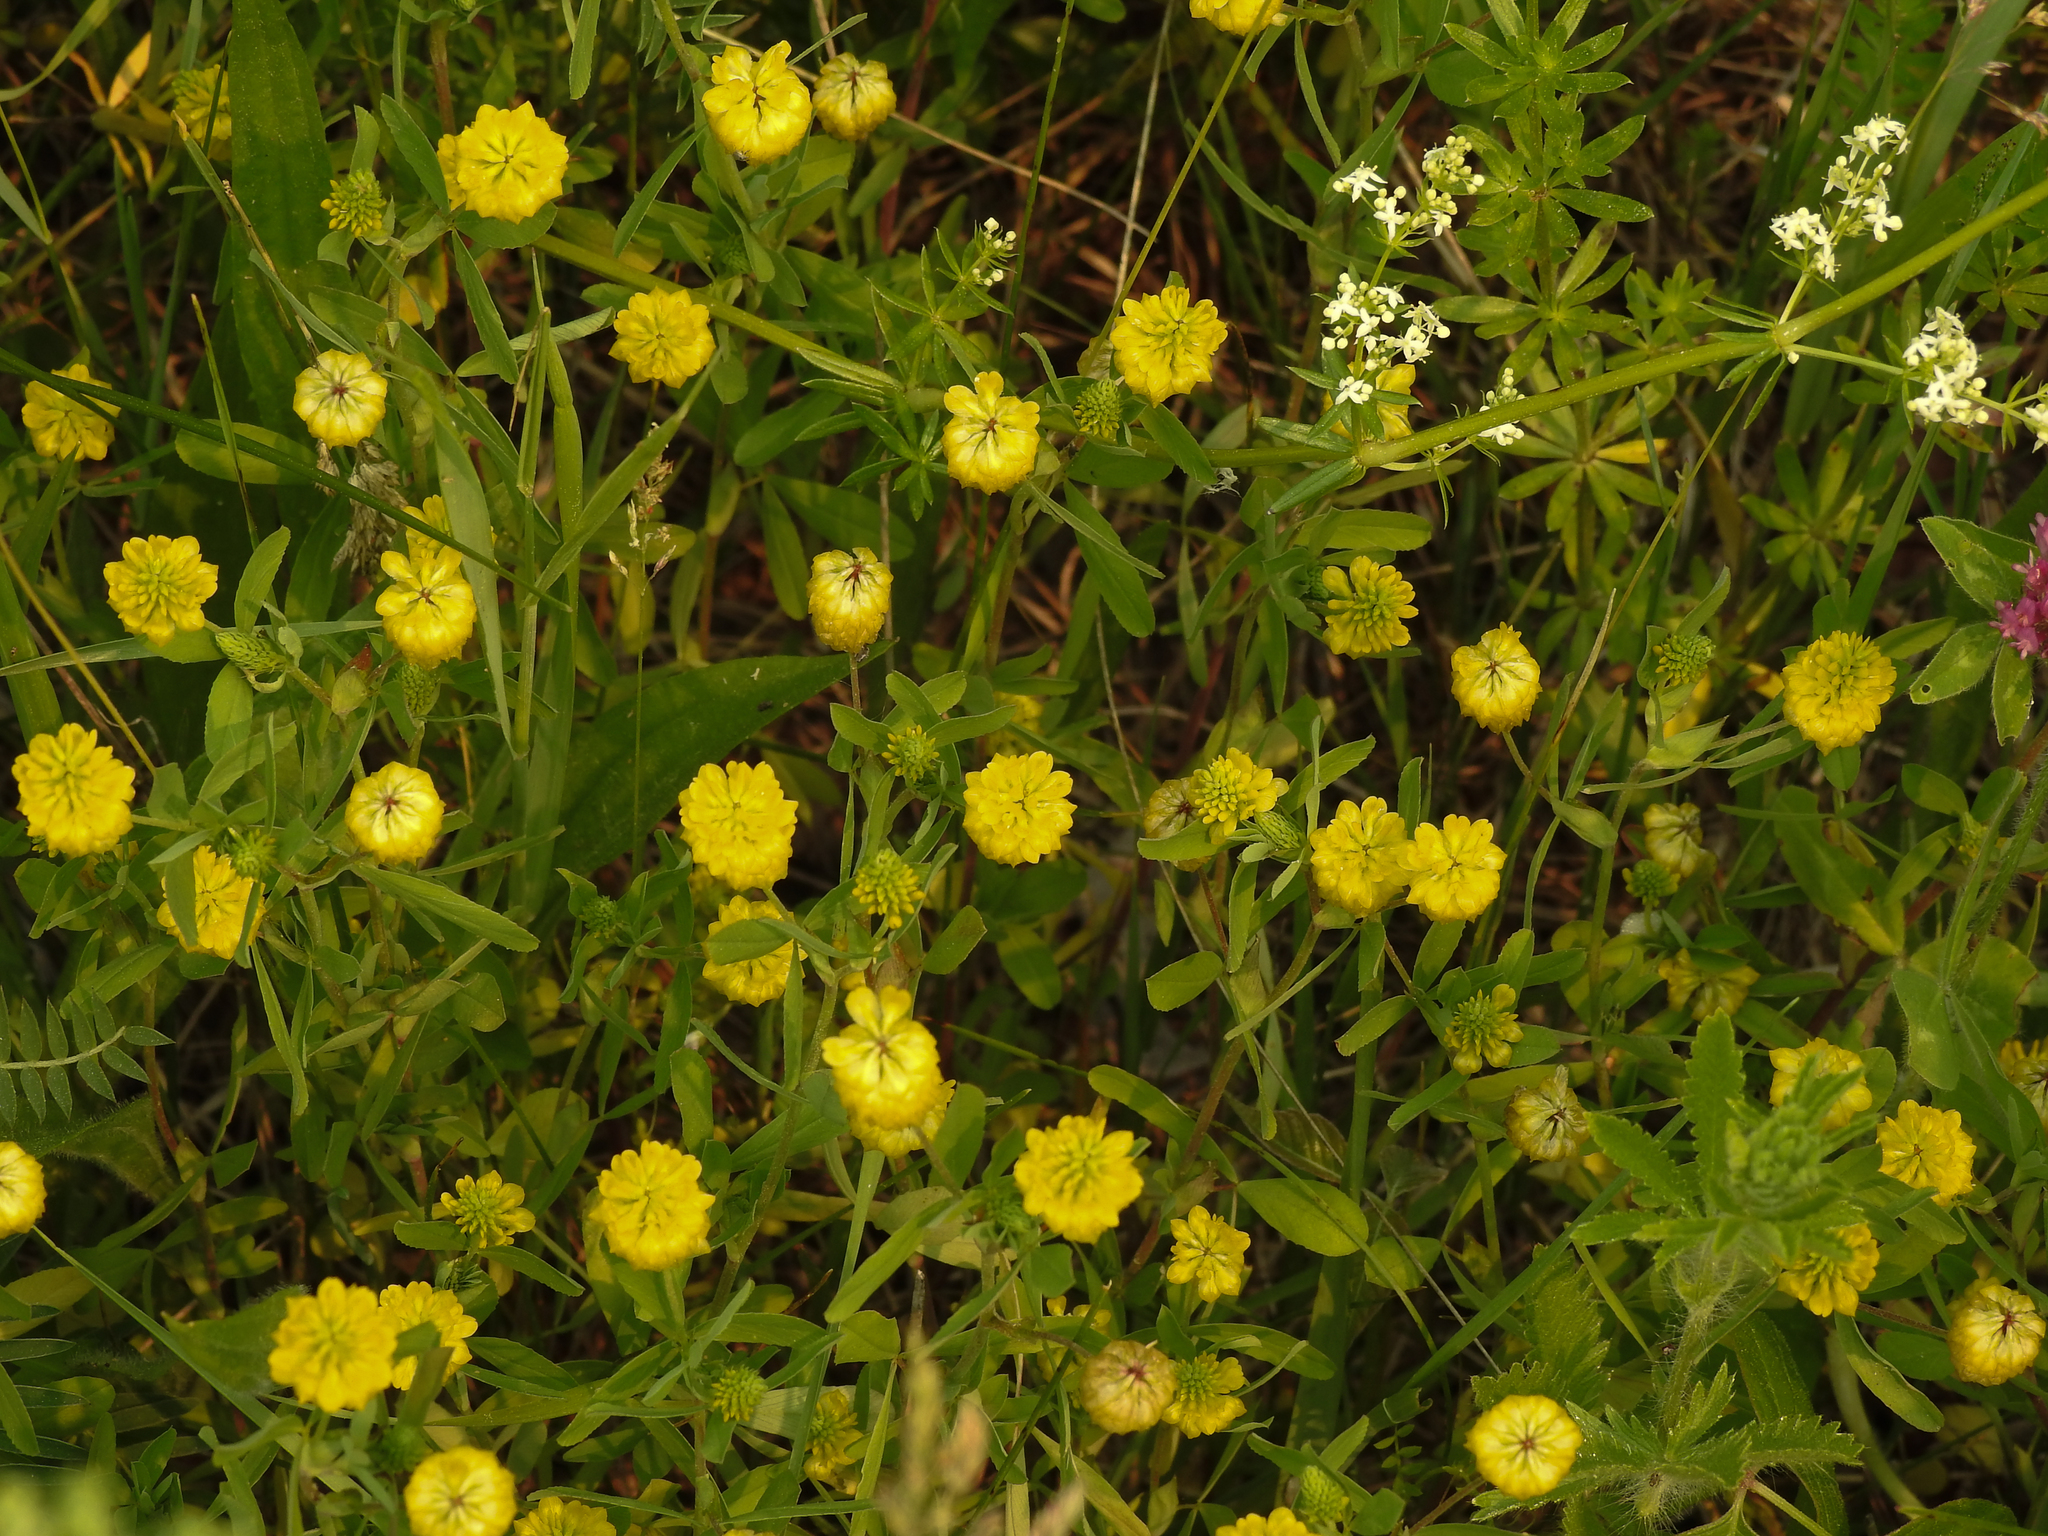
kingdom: Plantae
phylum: Tracheophyta
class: Magnoliopsida
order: Fabales
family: Fabaceae
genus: Trifolium
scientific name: Trifolium aureum
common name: Golden clover
